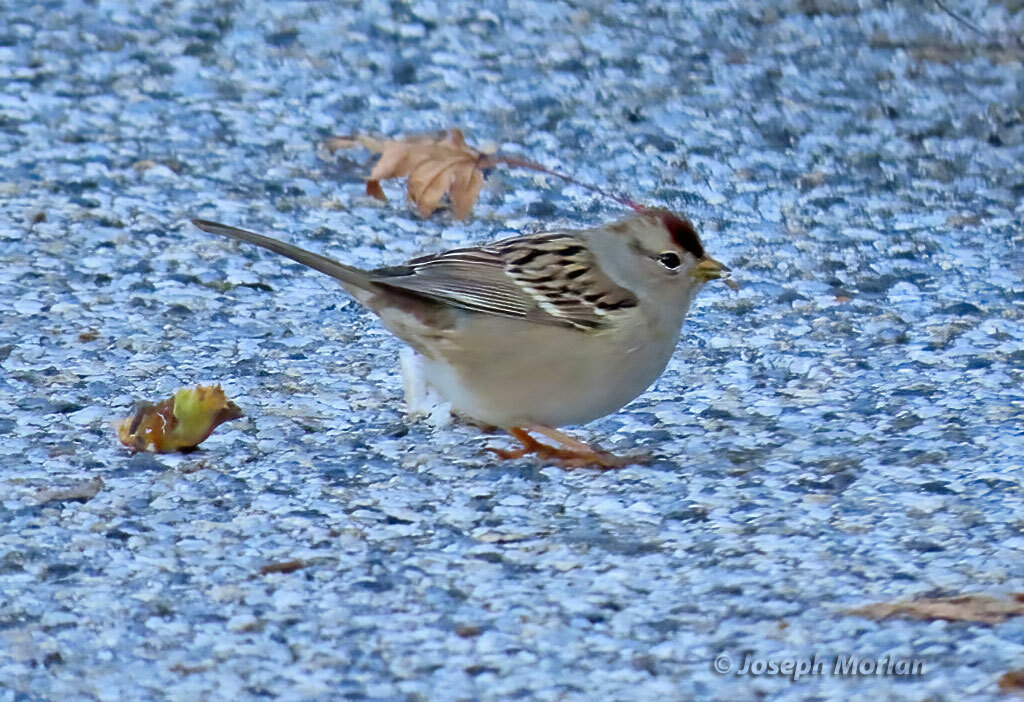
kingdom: Animalia
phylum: Chordata
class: Aves
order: Passeriformes
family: Passerellidae
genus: Zonotrichia
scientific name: Zonotrichia leucophrys
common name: White-crowned sparrow
